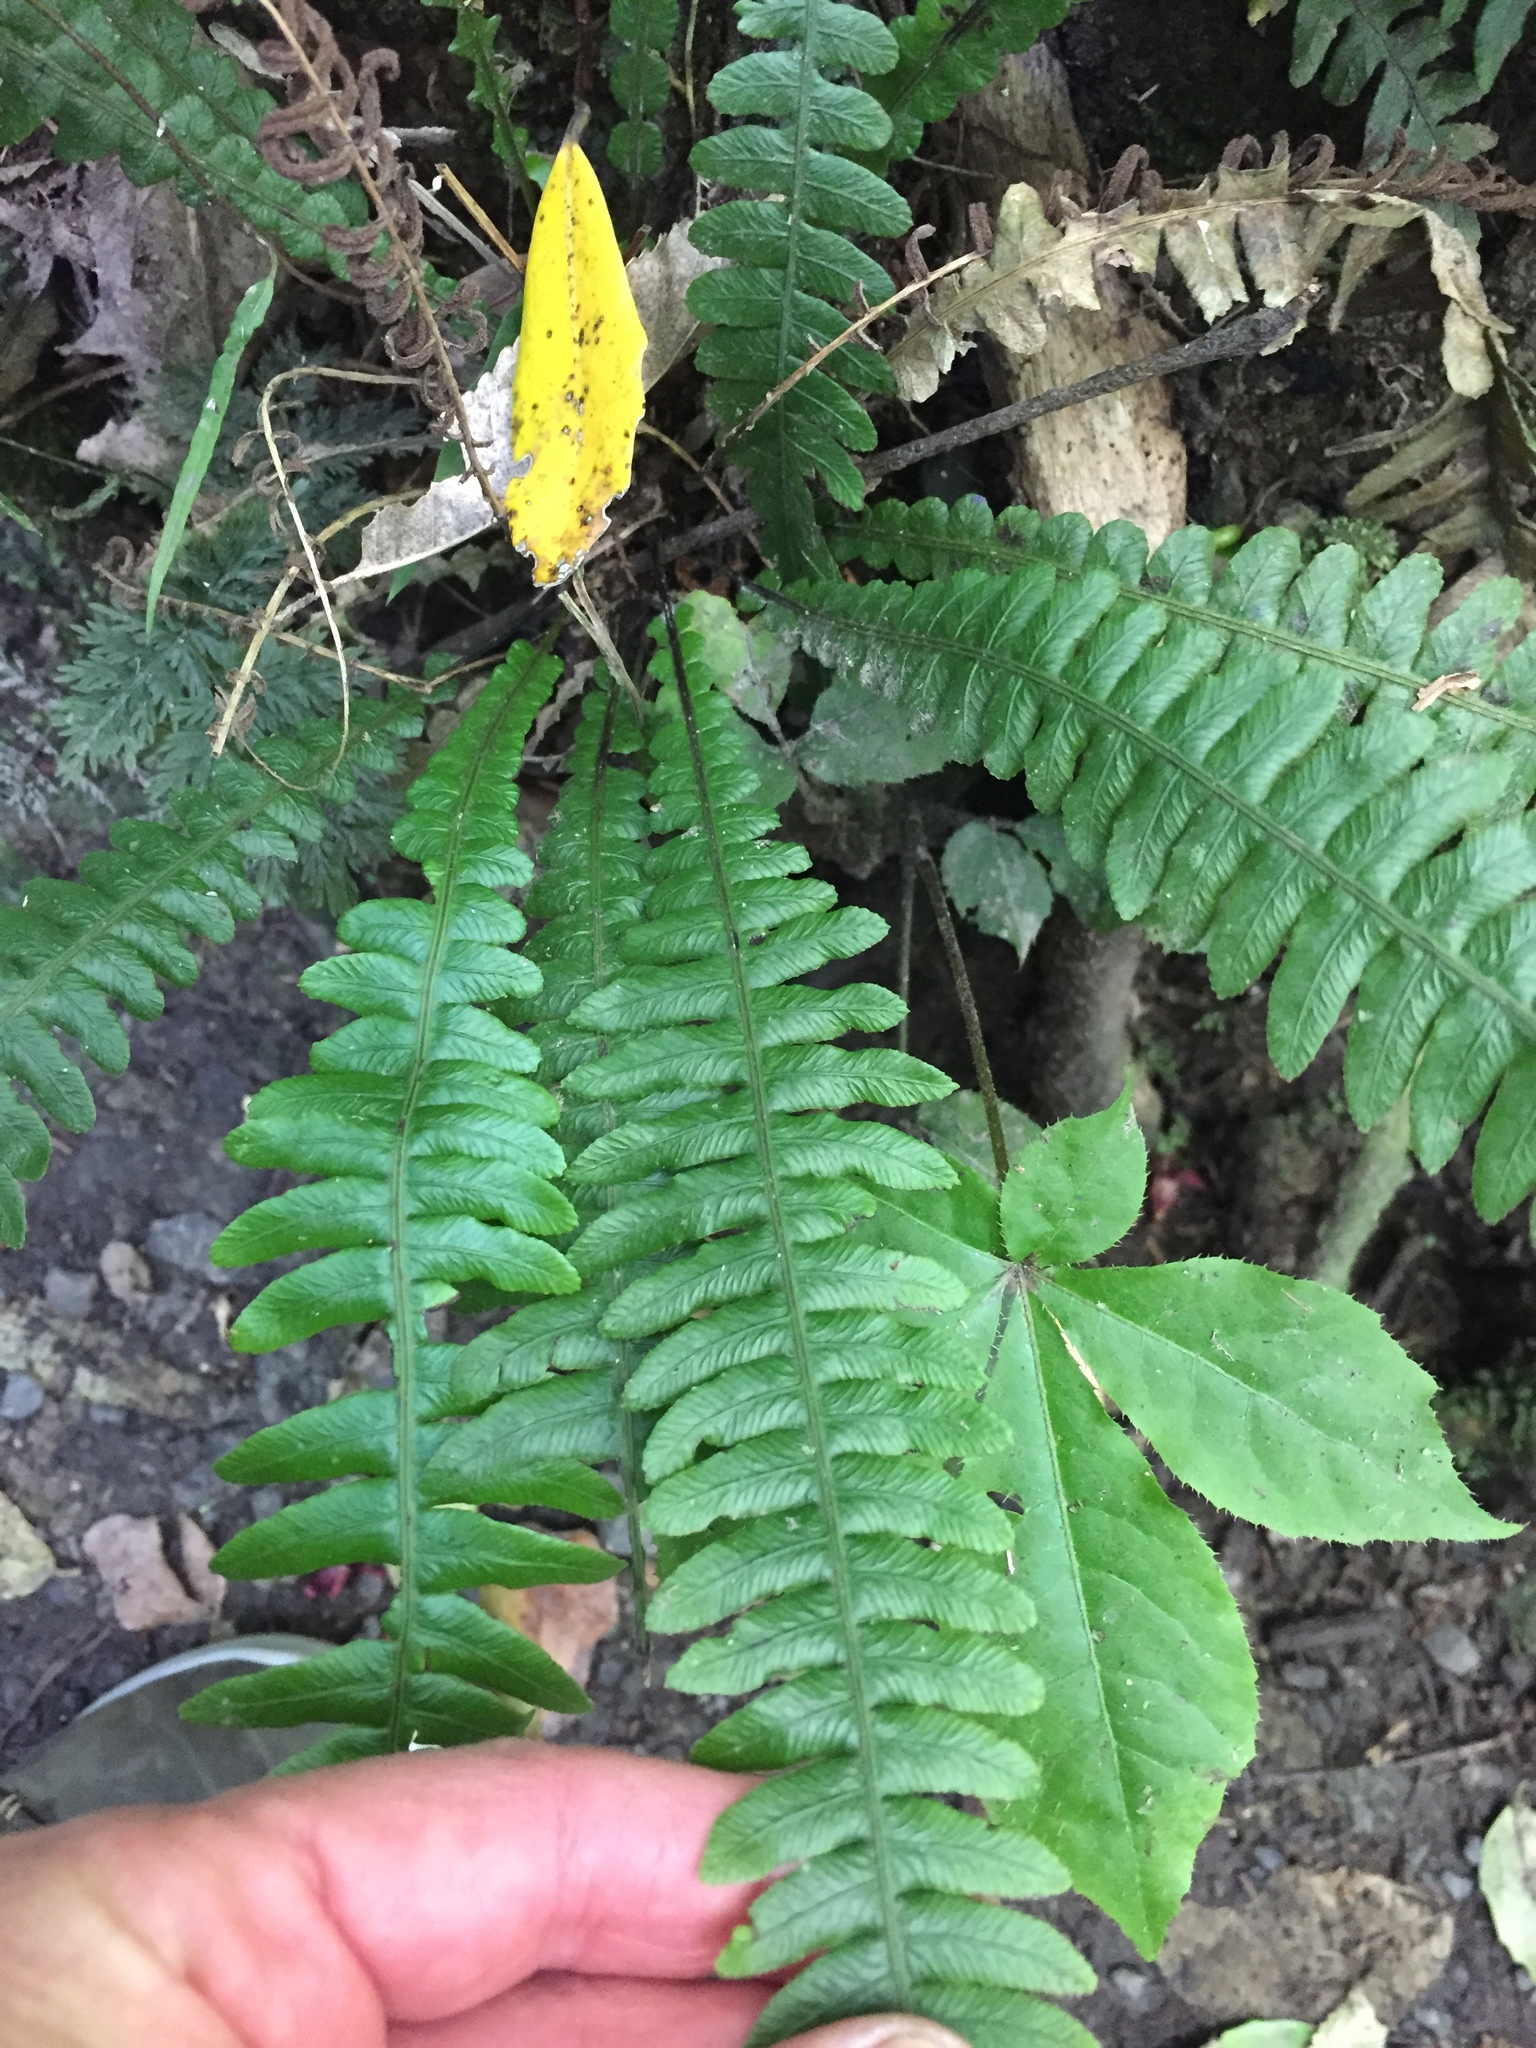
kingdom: Plantae
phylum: Tracheophyta
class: Polypodiopsida
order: Polypodiales
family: Blechnaceae
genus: Austroblechnum
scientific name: Austroblechnum lanceolatum
